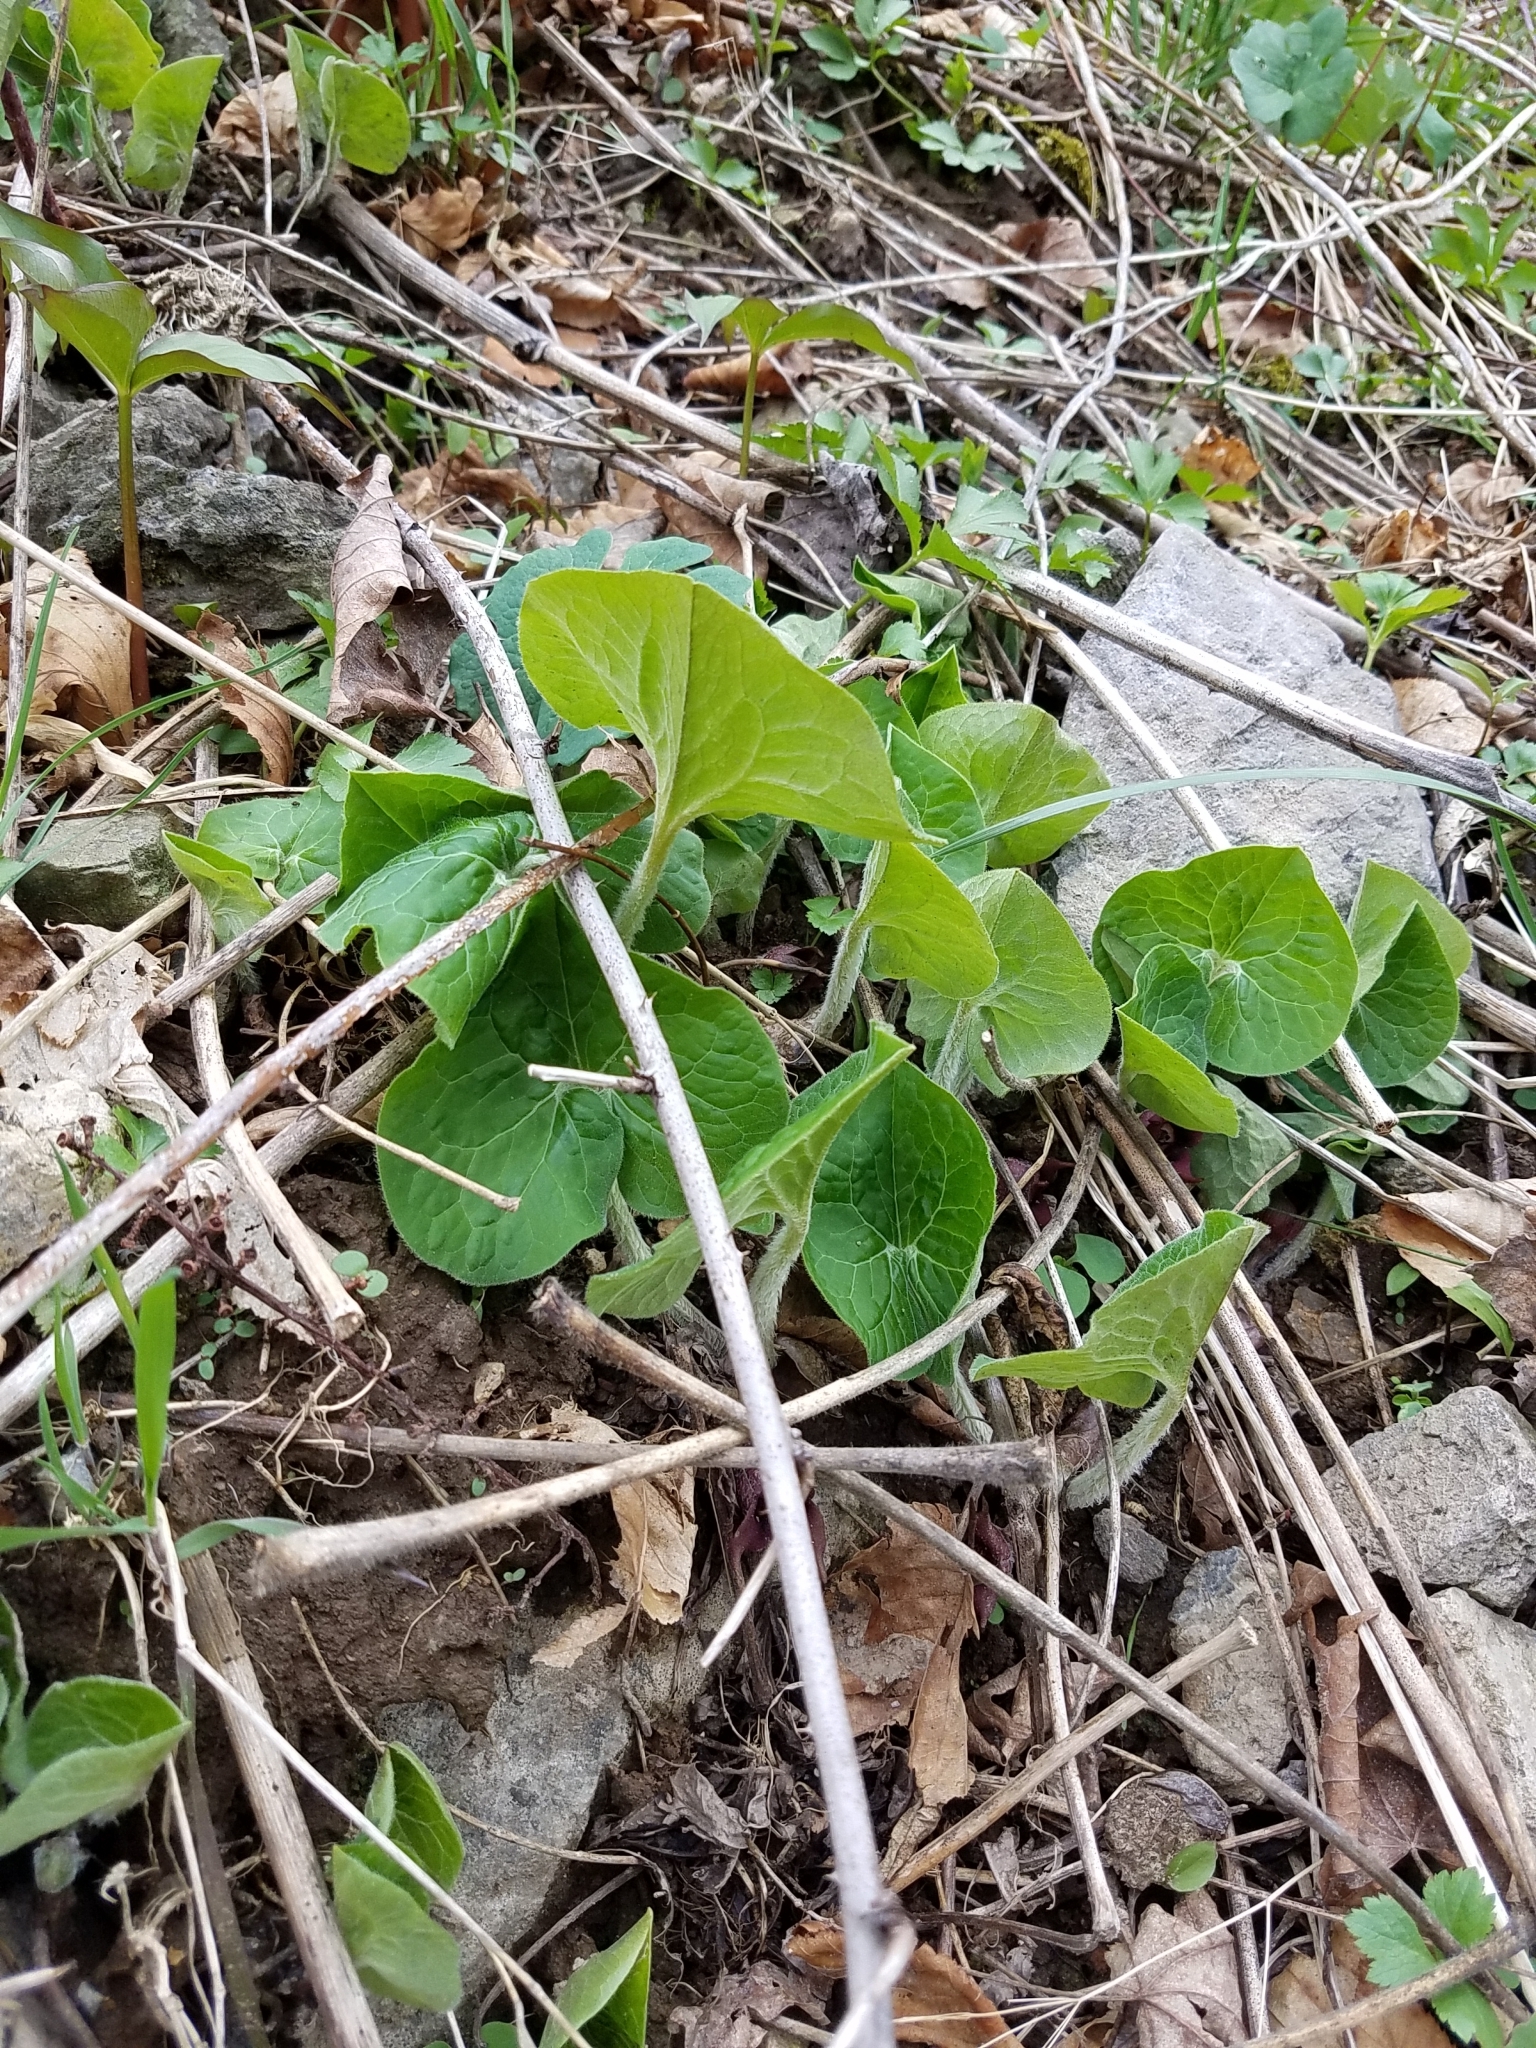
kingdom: Plantae
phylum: Tracheophyta
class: Magnoliopsida
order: Piperales
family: Aristolochiaceae
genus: Asarum
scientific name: Asarum canadense
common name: Wild ginger
